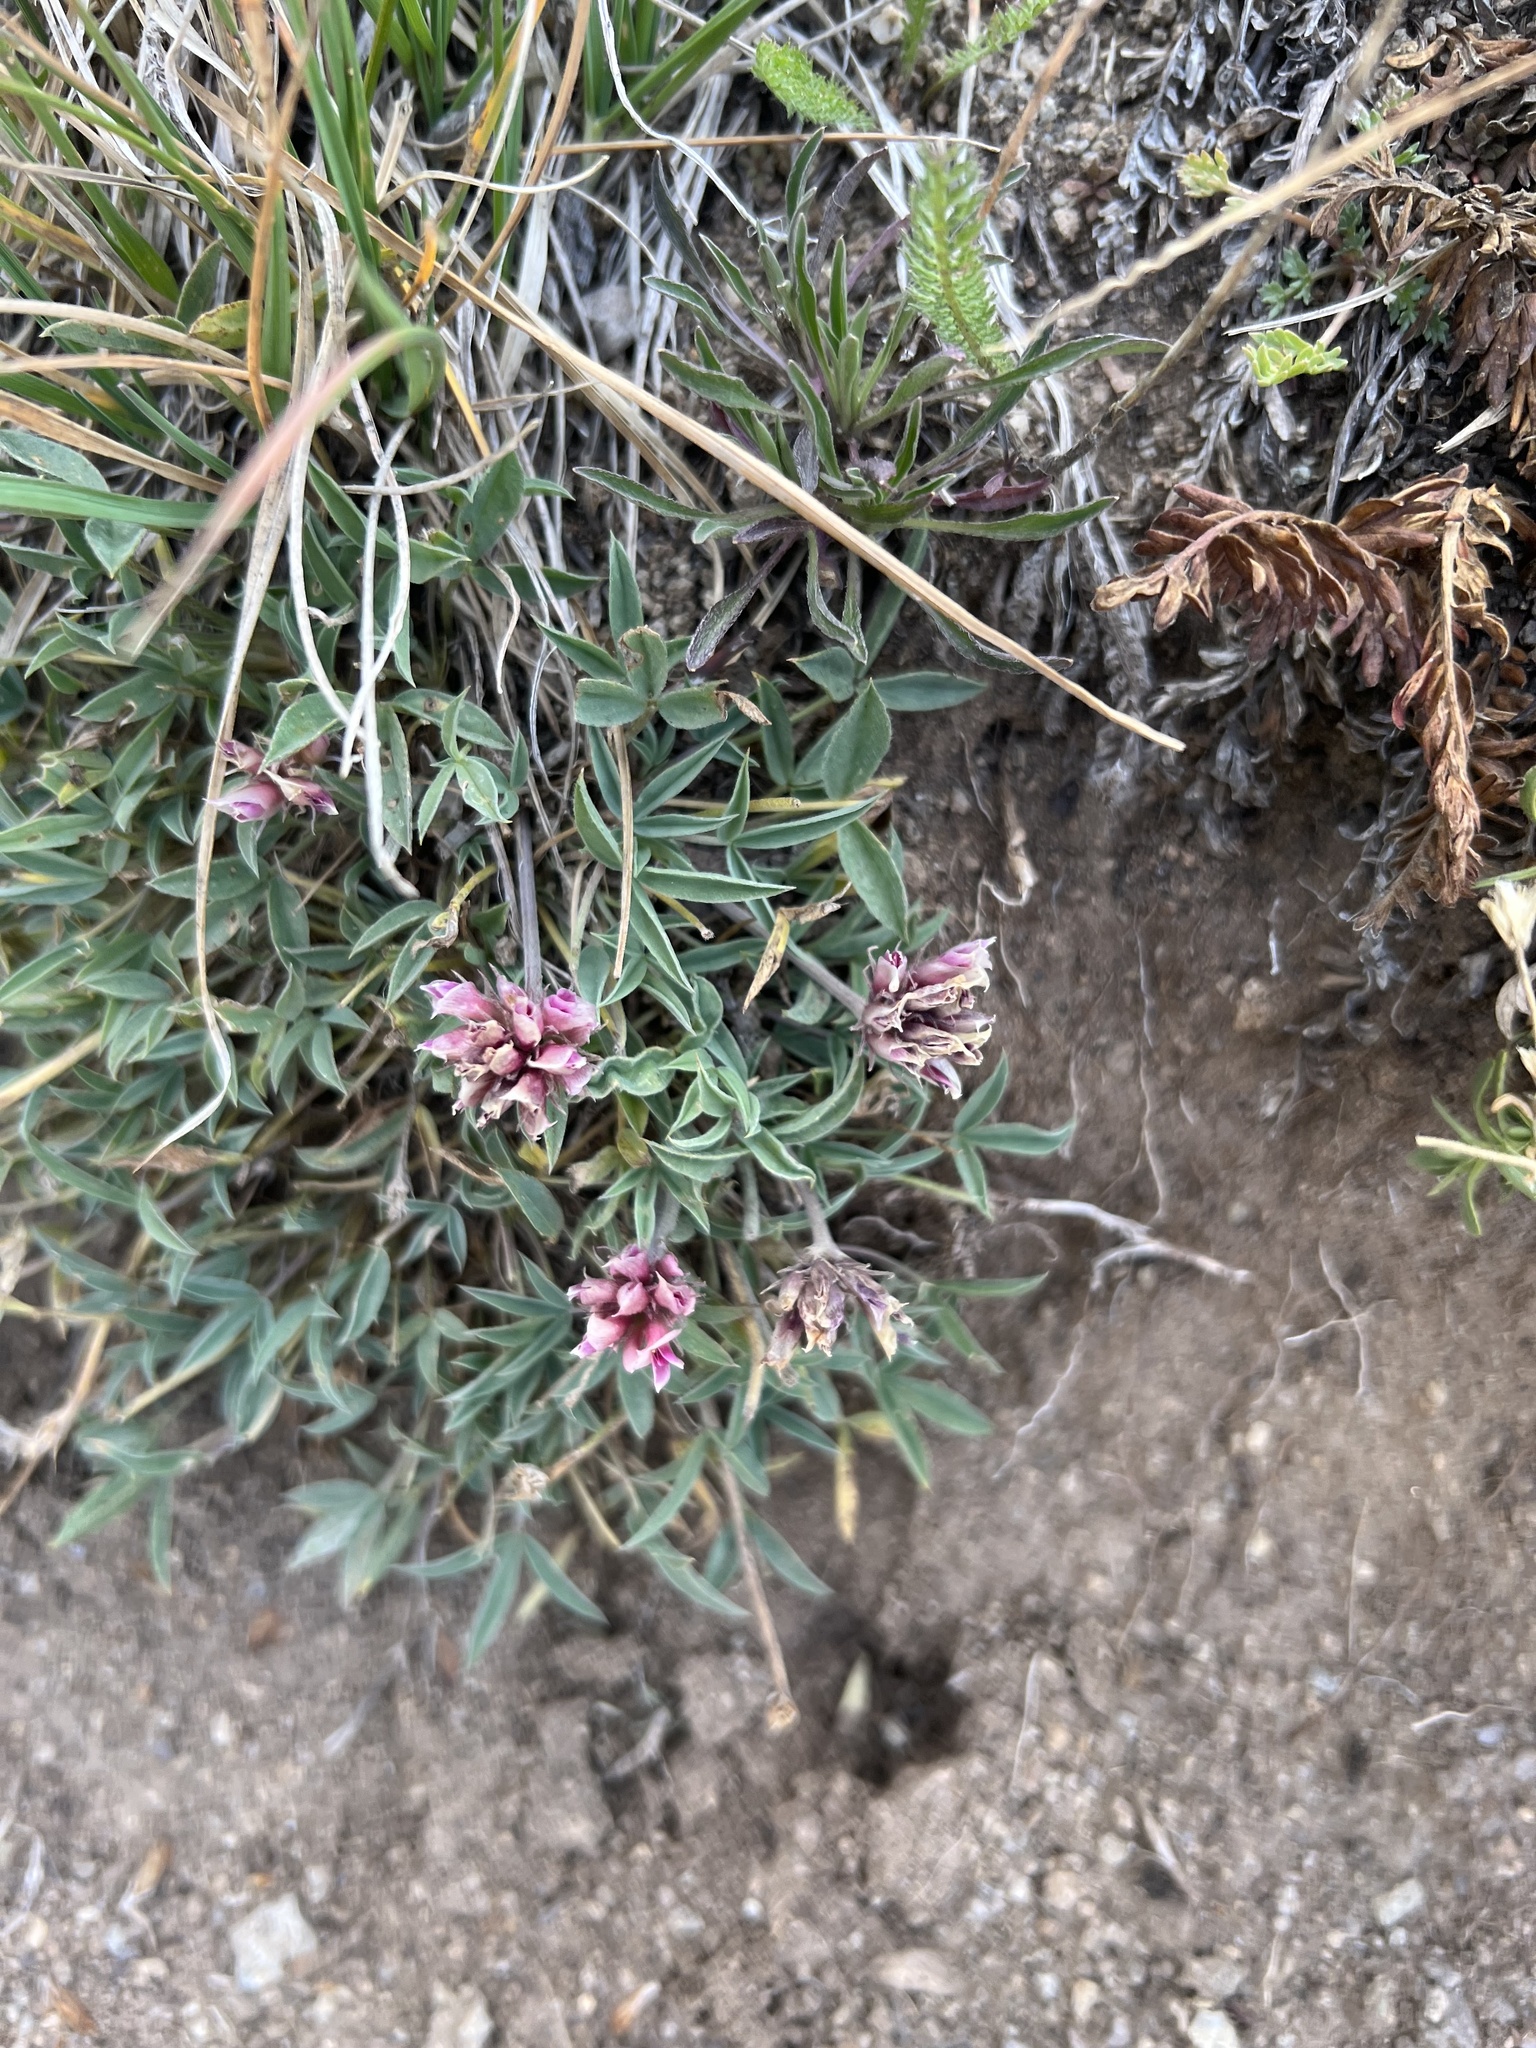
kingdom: Plantae
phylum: Tracheophyta
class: Magnoliopsida
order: Fabales
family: Fabaceae
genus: Trifolium
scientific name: Trifolium dasyphyllum
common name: Whip-root clover
